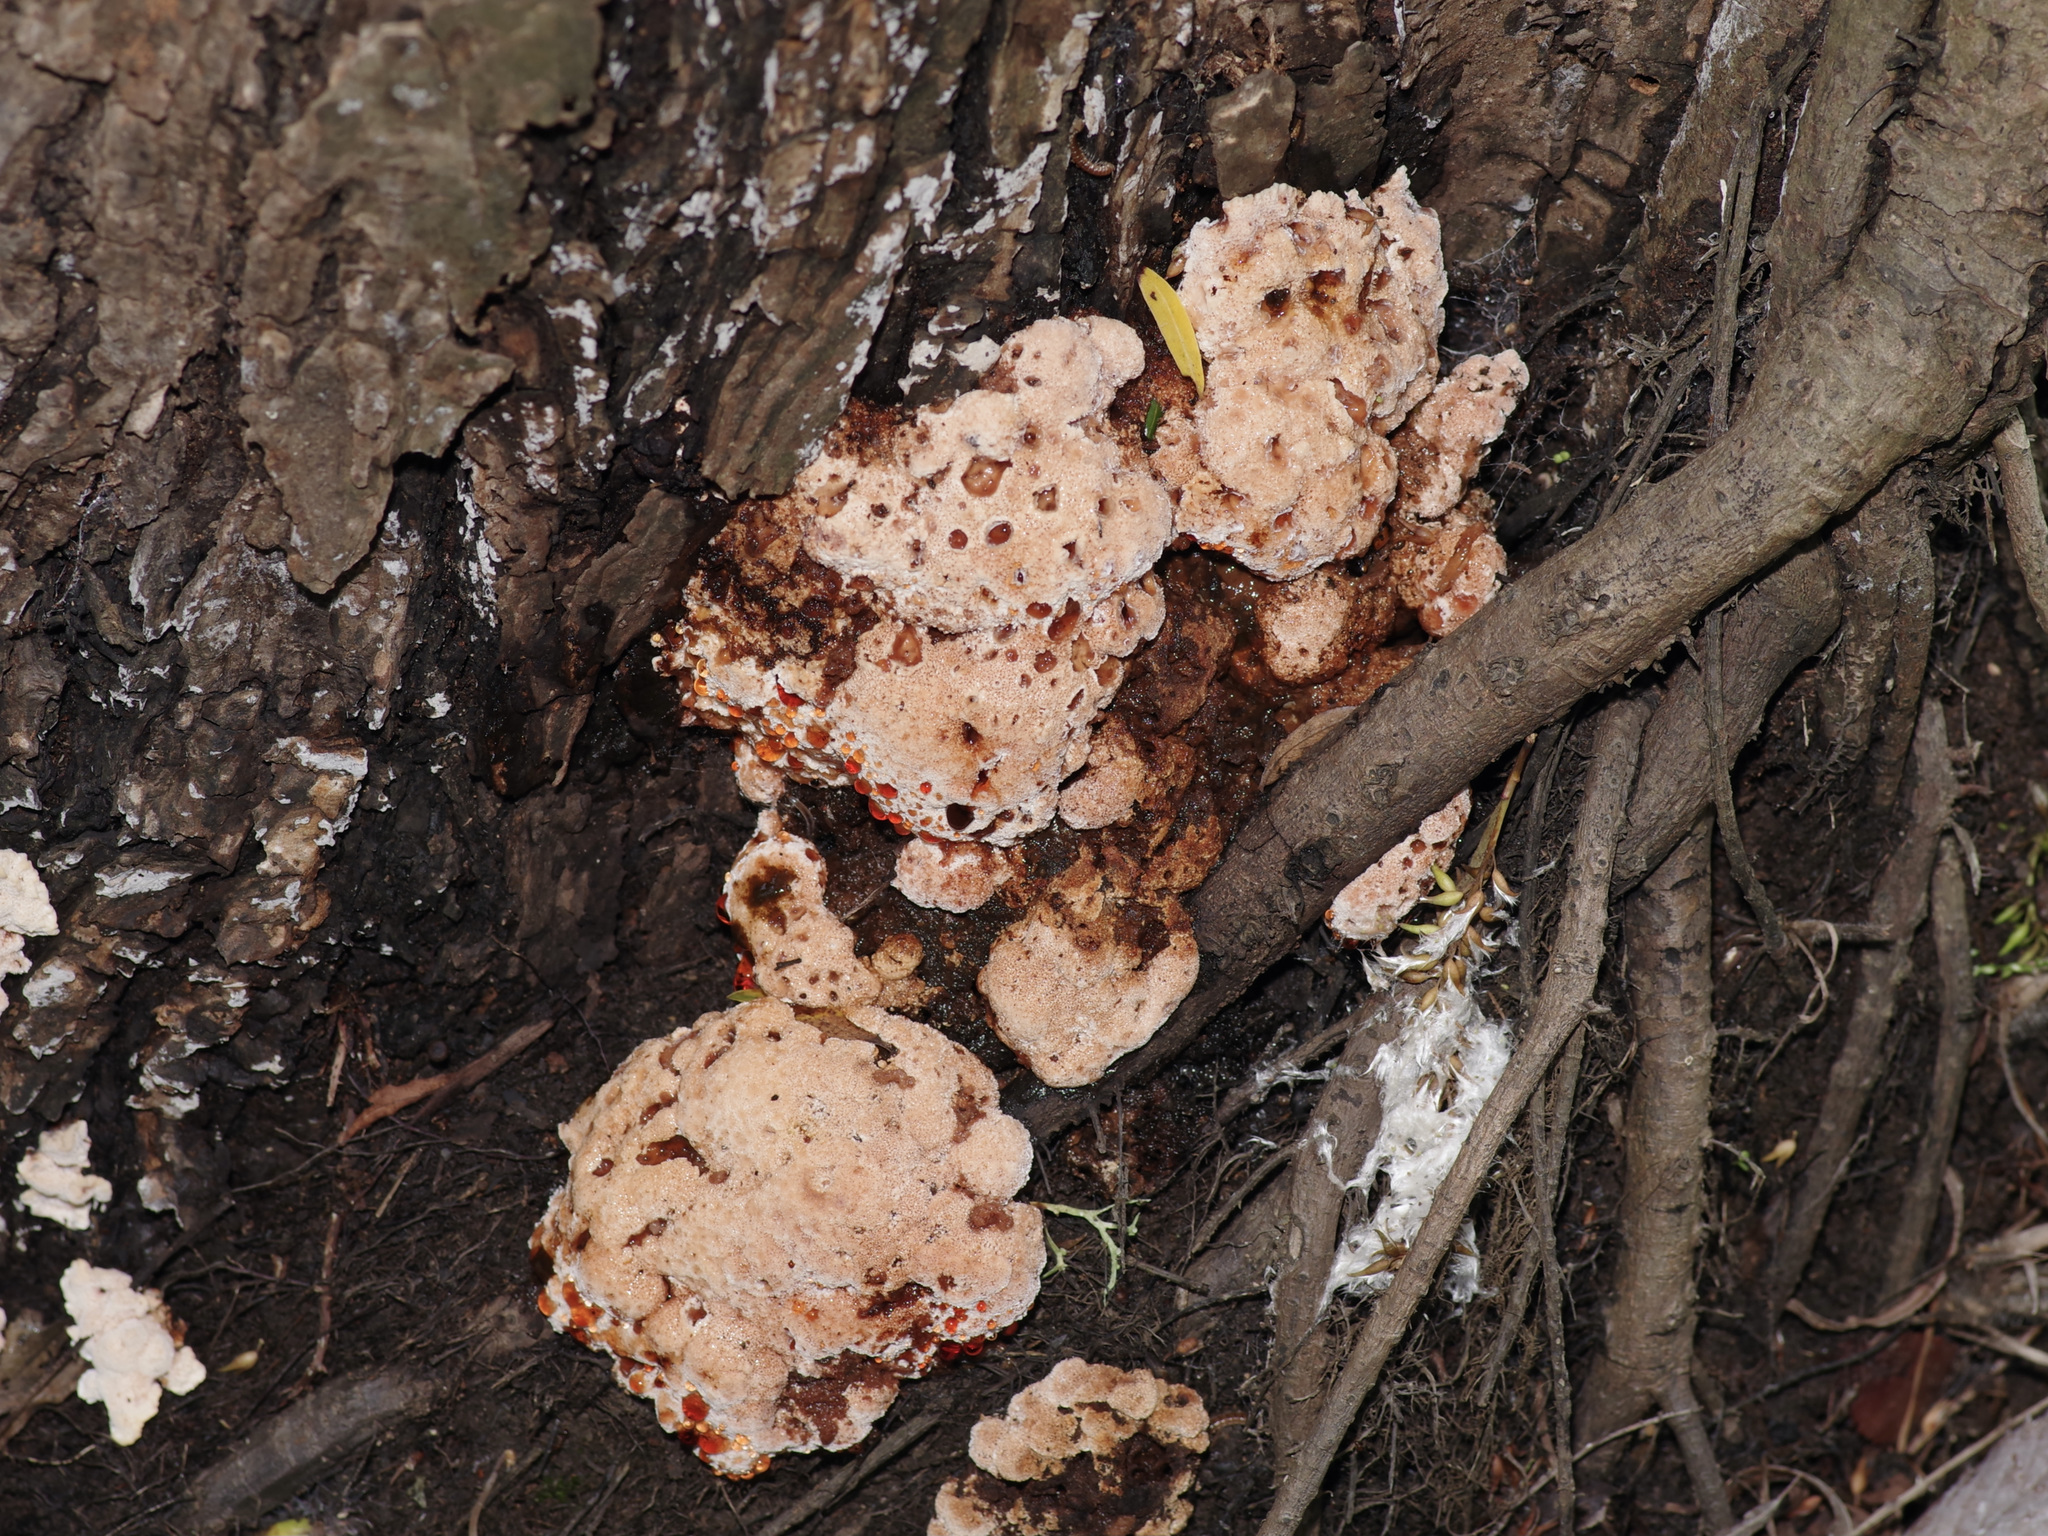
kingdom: Fungi
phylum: Basidiomycota
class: Agaricomycetes
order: Polyporales
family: Podoscyphaceae
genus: Abortiporus
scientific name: Abortiporus biennis
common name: Blushing rosette
